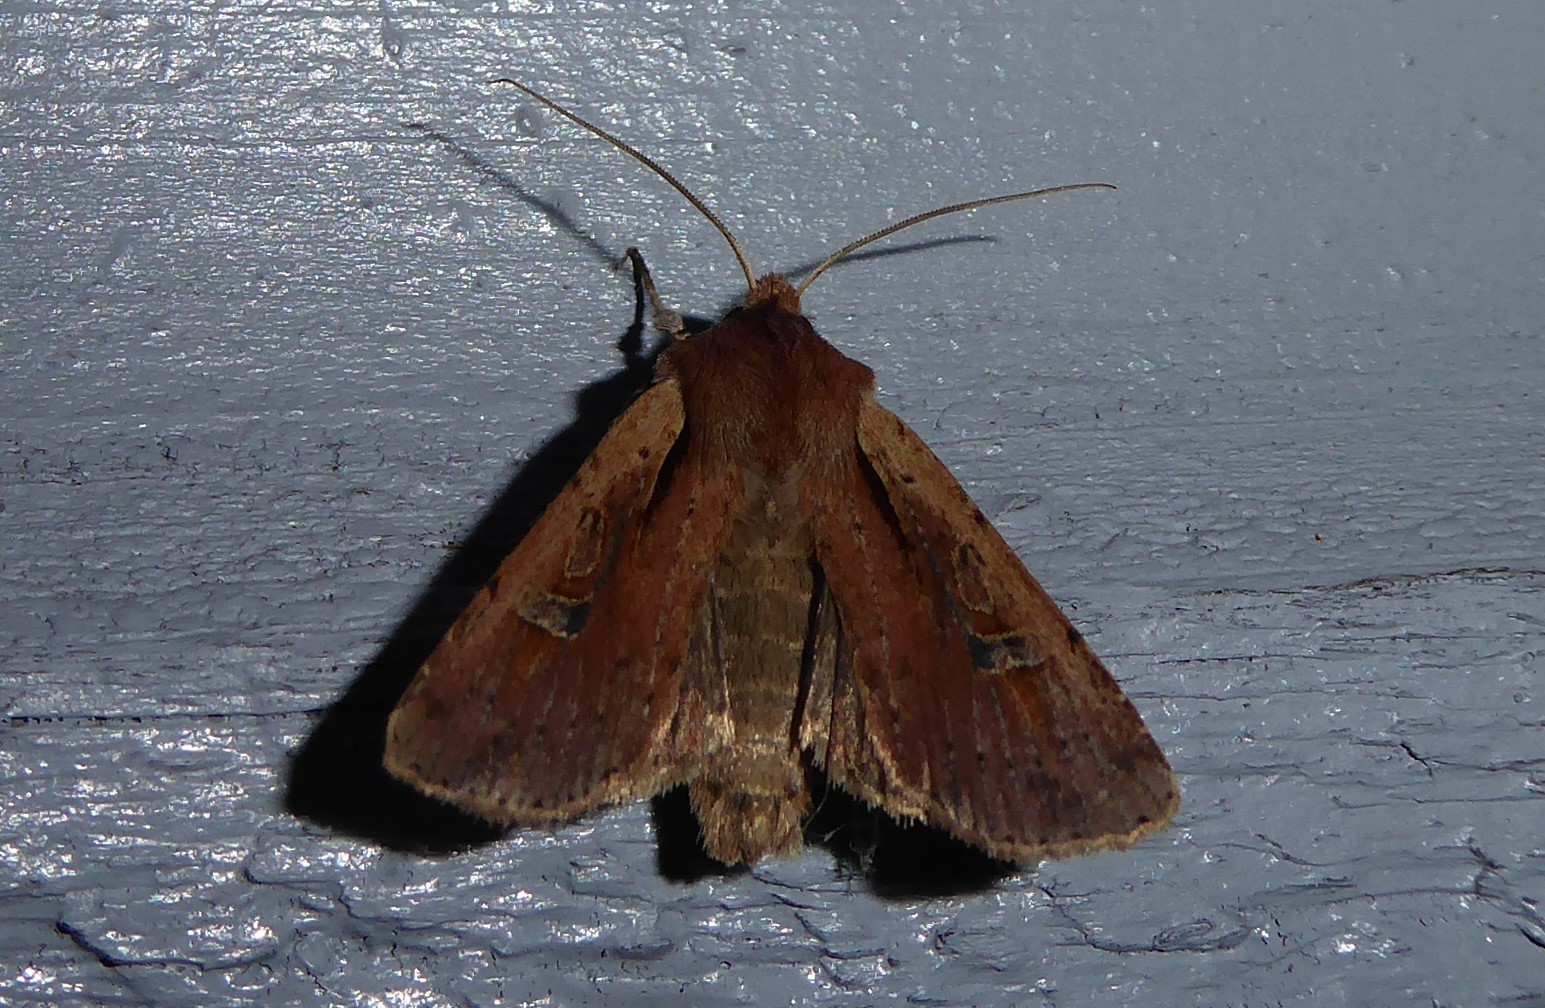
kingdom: Animalia
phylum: Arthropoda
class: Insecta
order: Lepidoptera
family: Noctuidae
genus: Ichneutica
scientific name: Ichneutica atristriga
